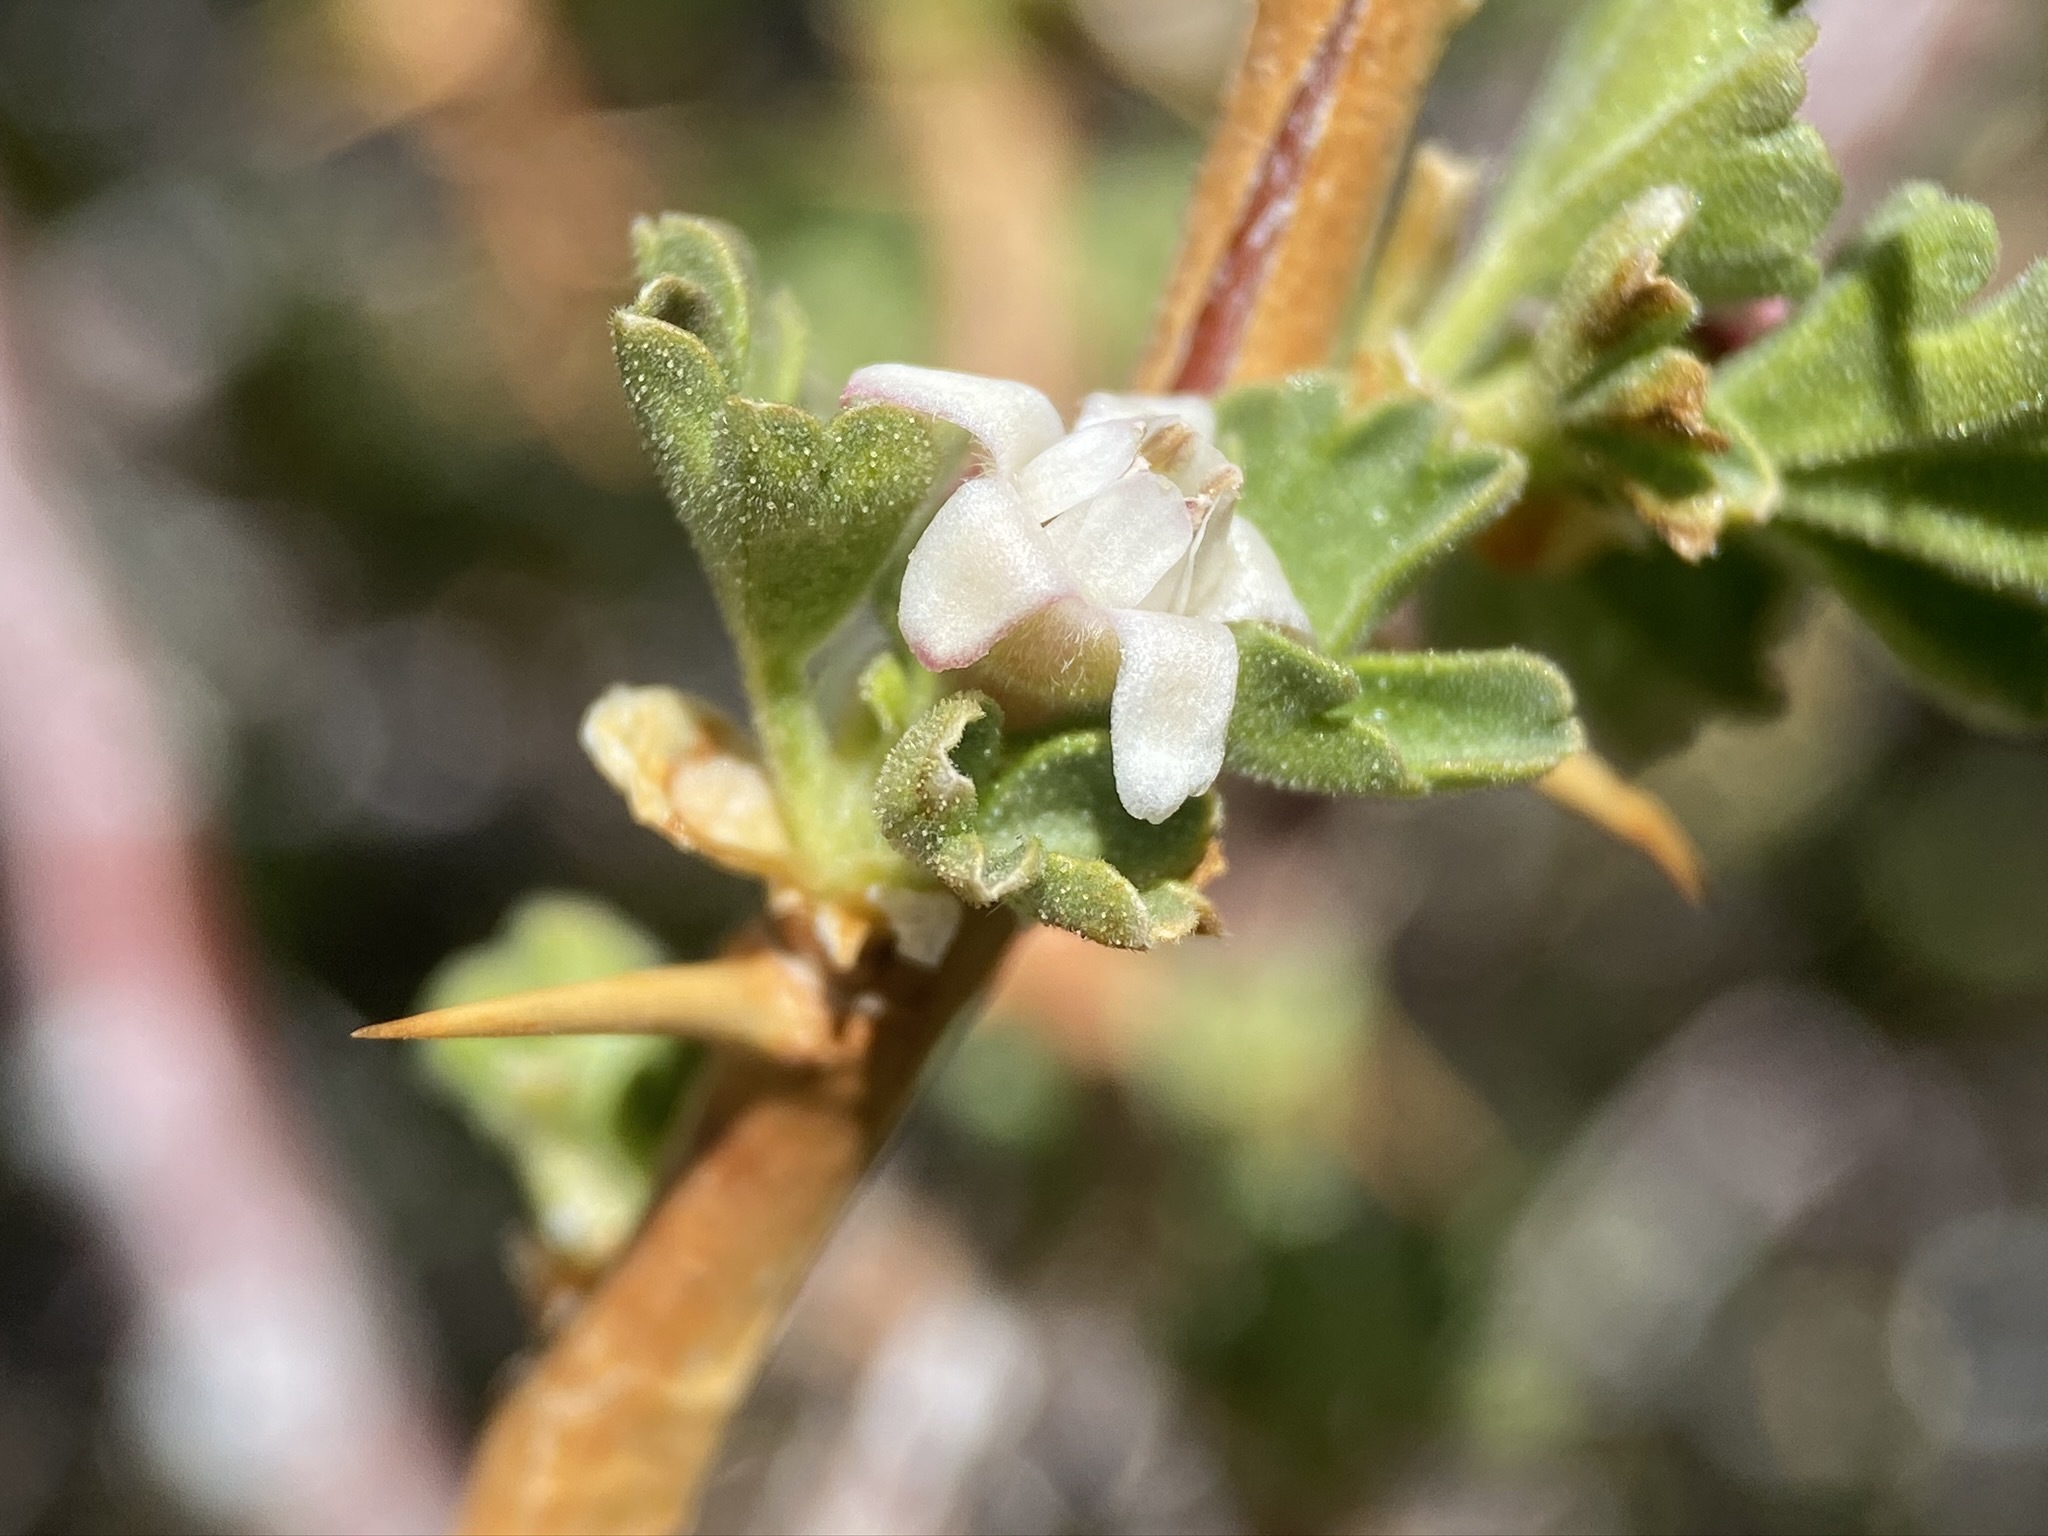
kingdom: Plantae
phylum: Tracheophyta
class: Magnoliopsida
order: Saxifragales
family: Grossulariaceae
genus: Ribes
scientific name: Ribes velutinum
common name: Desert gooseberry
